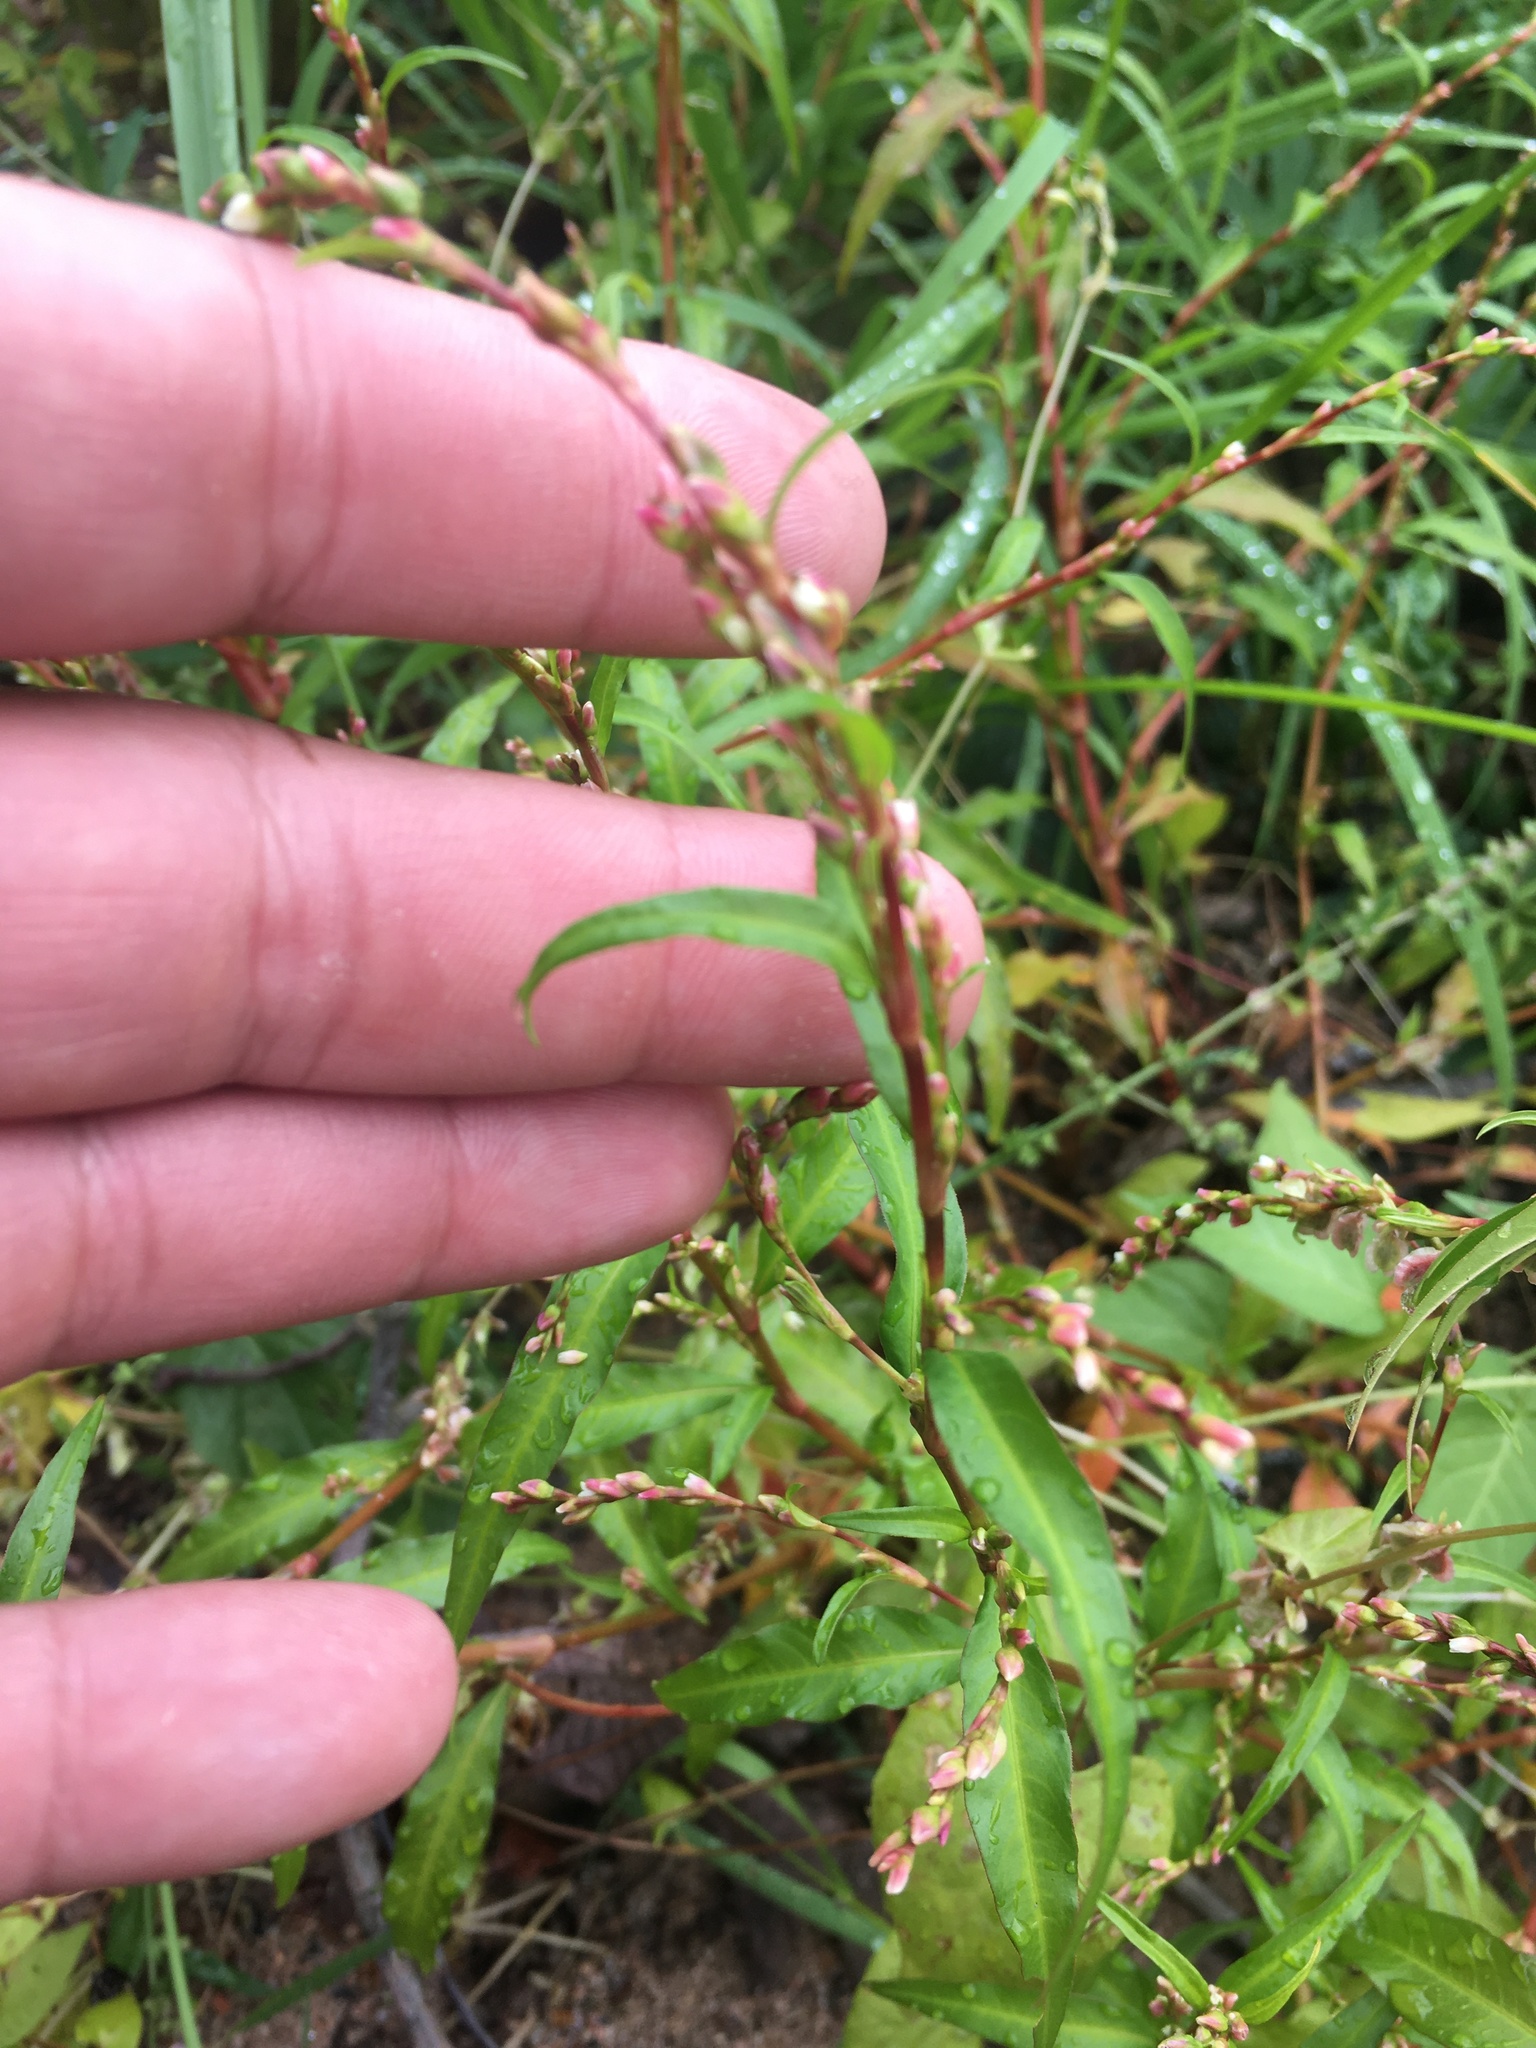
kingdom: Plantae
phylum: Tracheophyta
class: Magnoliopsida
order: Caryophyllales
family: Polygonaceae
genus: Persicaria
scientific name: Persicaria hydropiper
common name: Water-pepper
